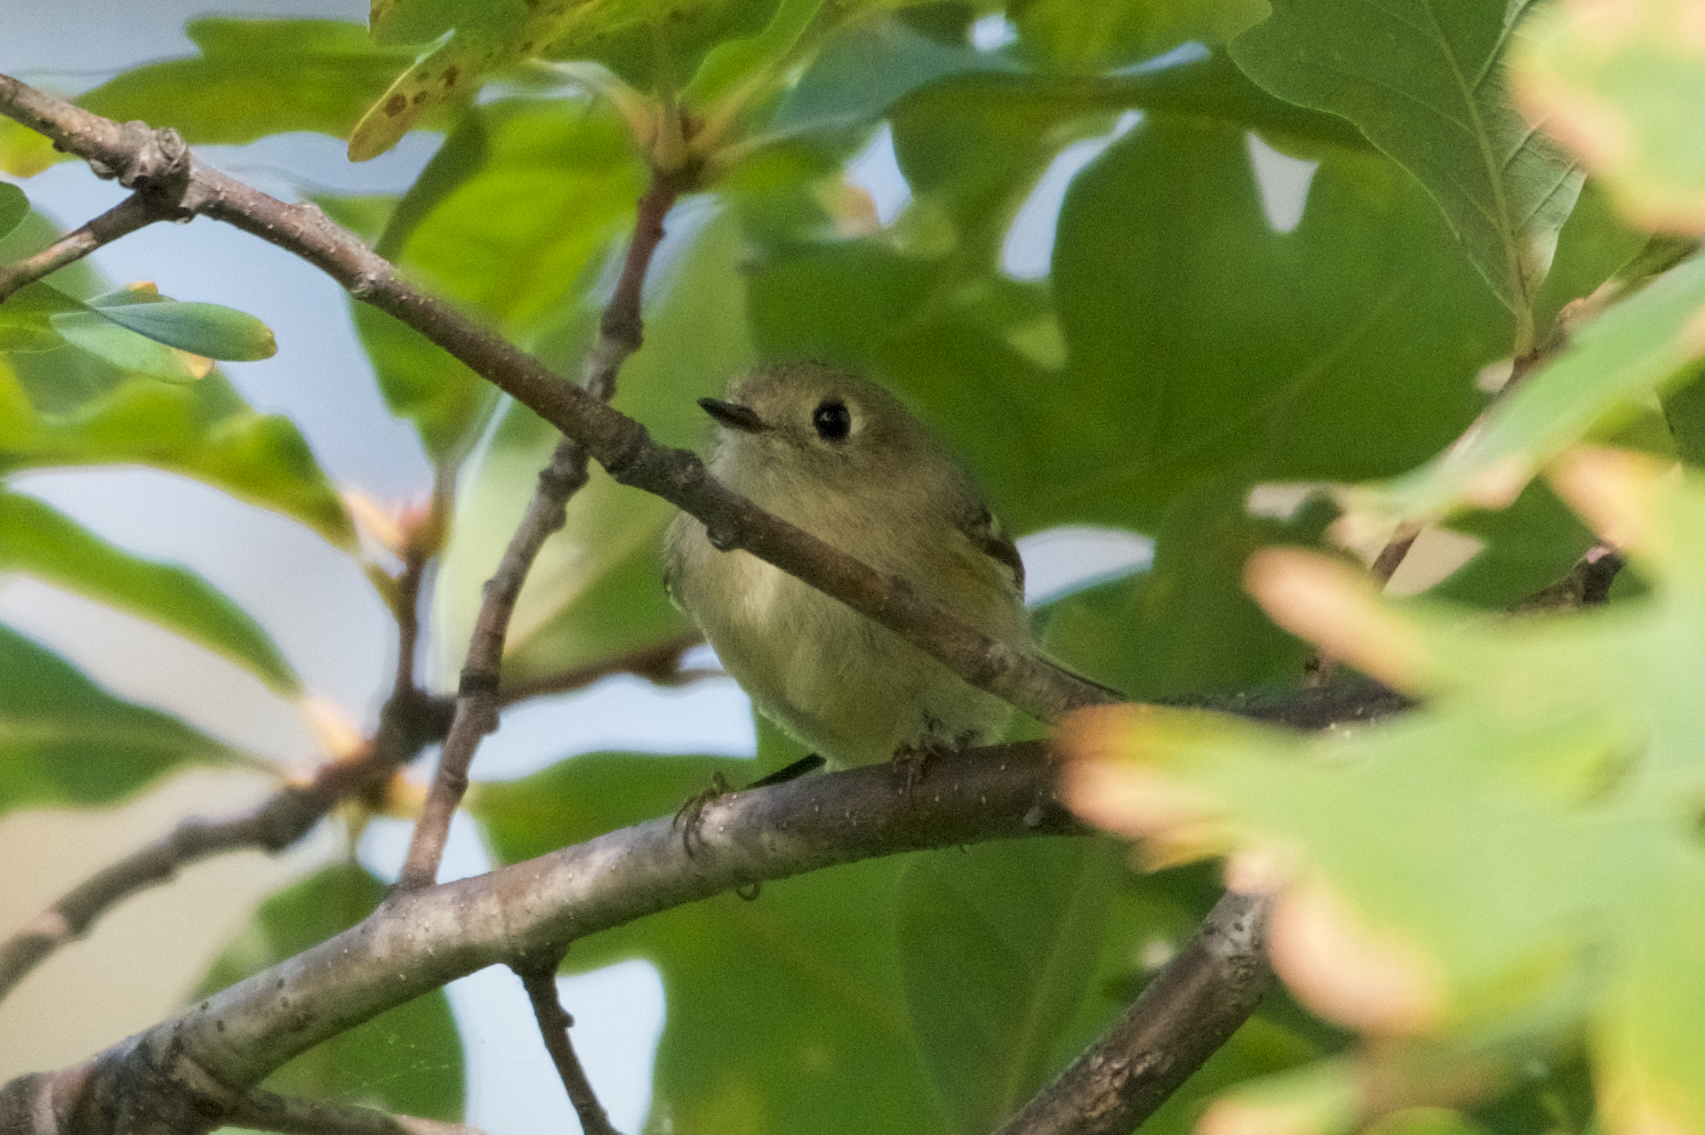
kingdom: Animalia
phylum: Chordata
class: Aves
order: Passeriformes
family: Regulidae
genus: Regulus
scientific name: Regulus calendula
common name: Ruby-crowned kinglet
